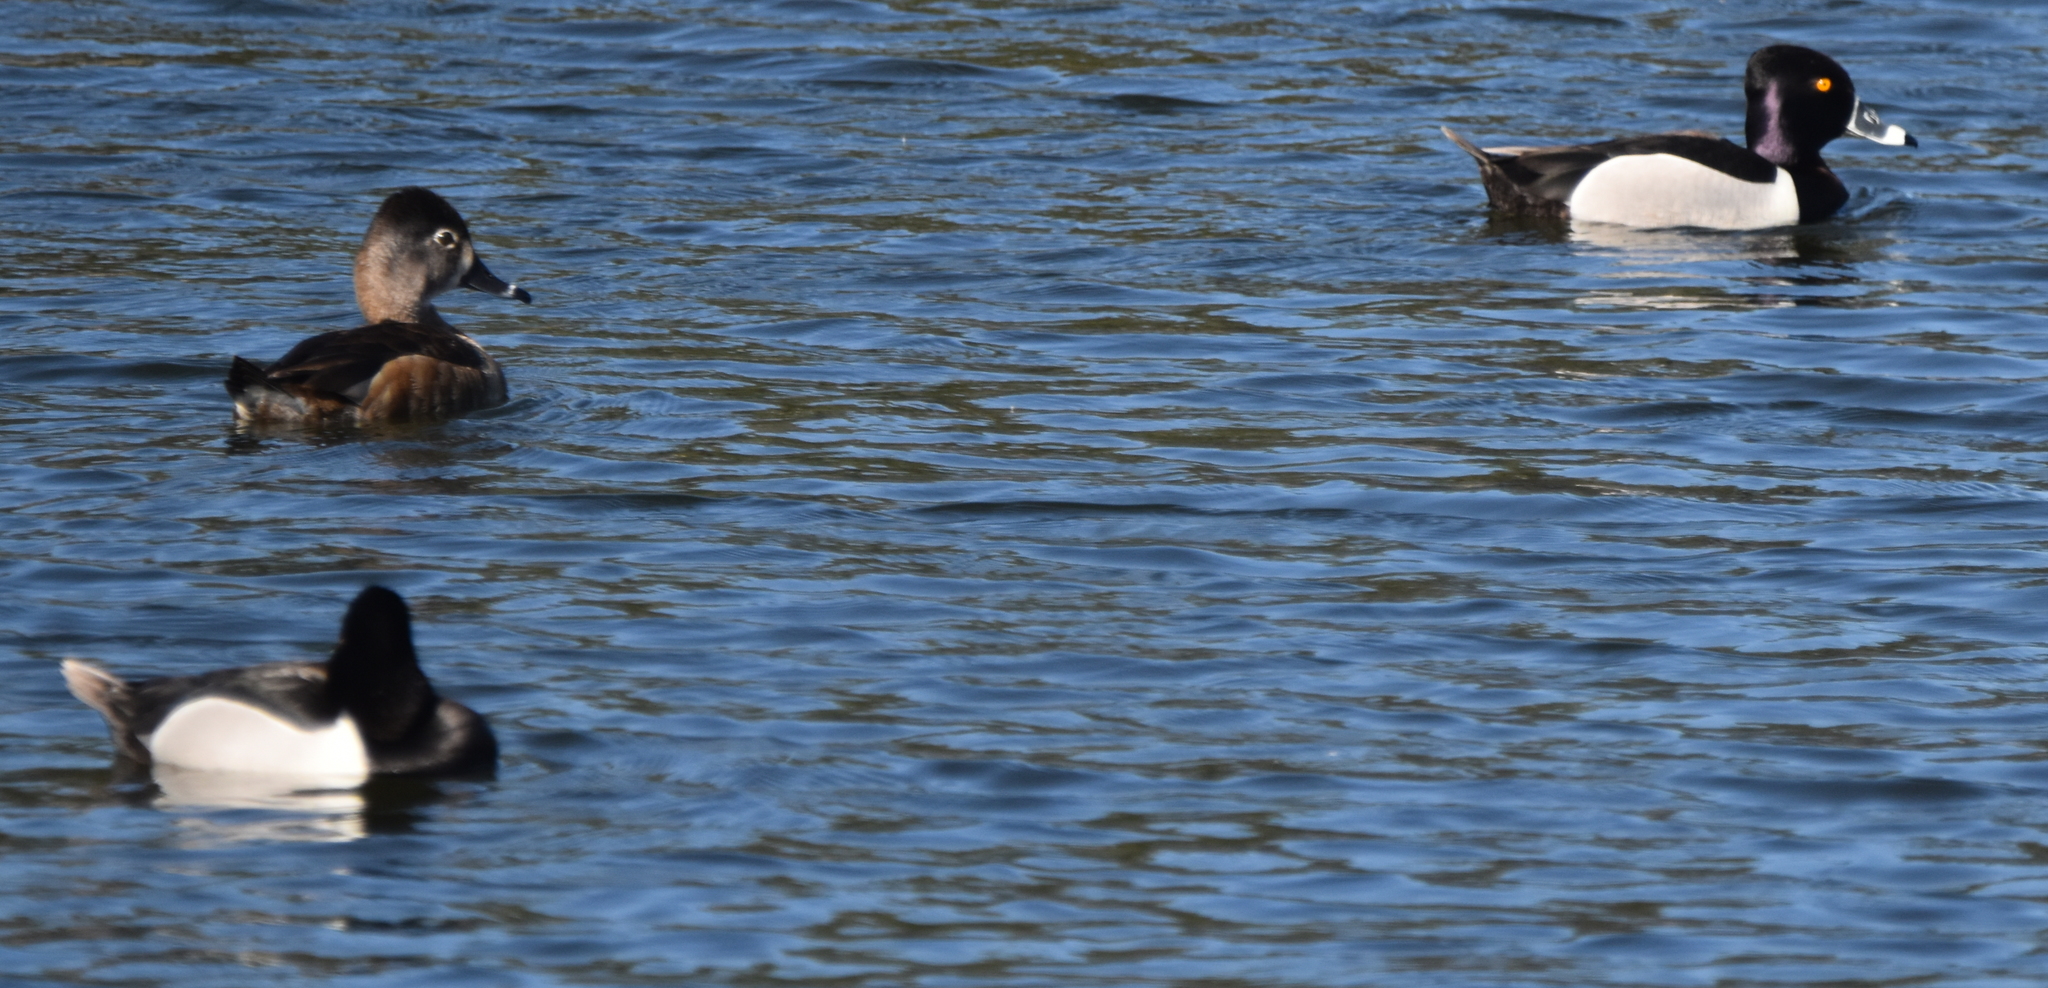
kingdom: Animalia
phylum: Chordata
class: Aves
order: Anseriformes
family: Anatidae
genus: Aythya
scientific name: Aythya collaris
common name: Ring-necked duck
